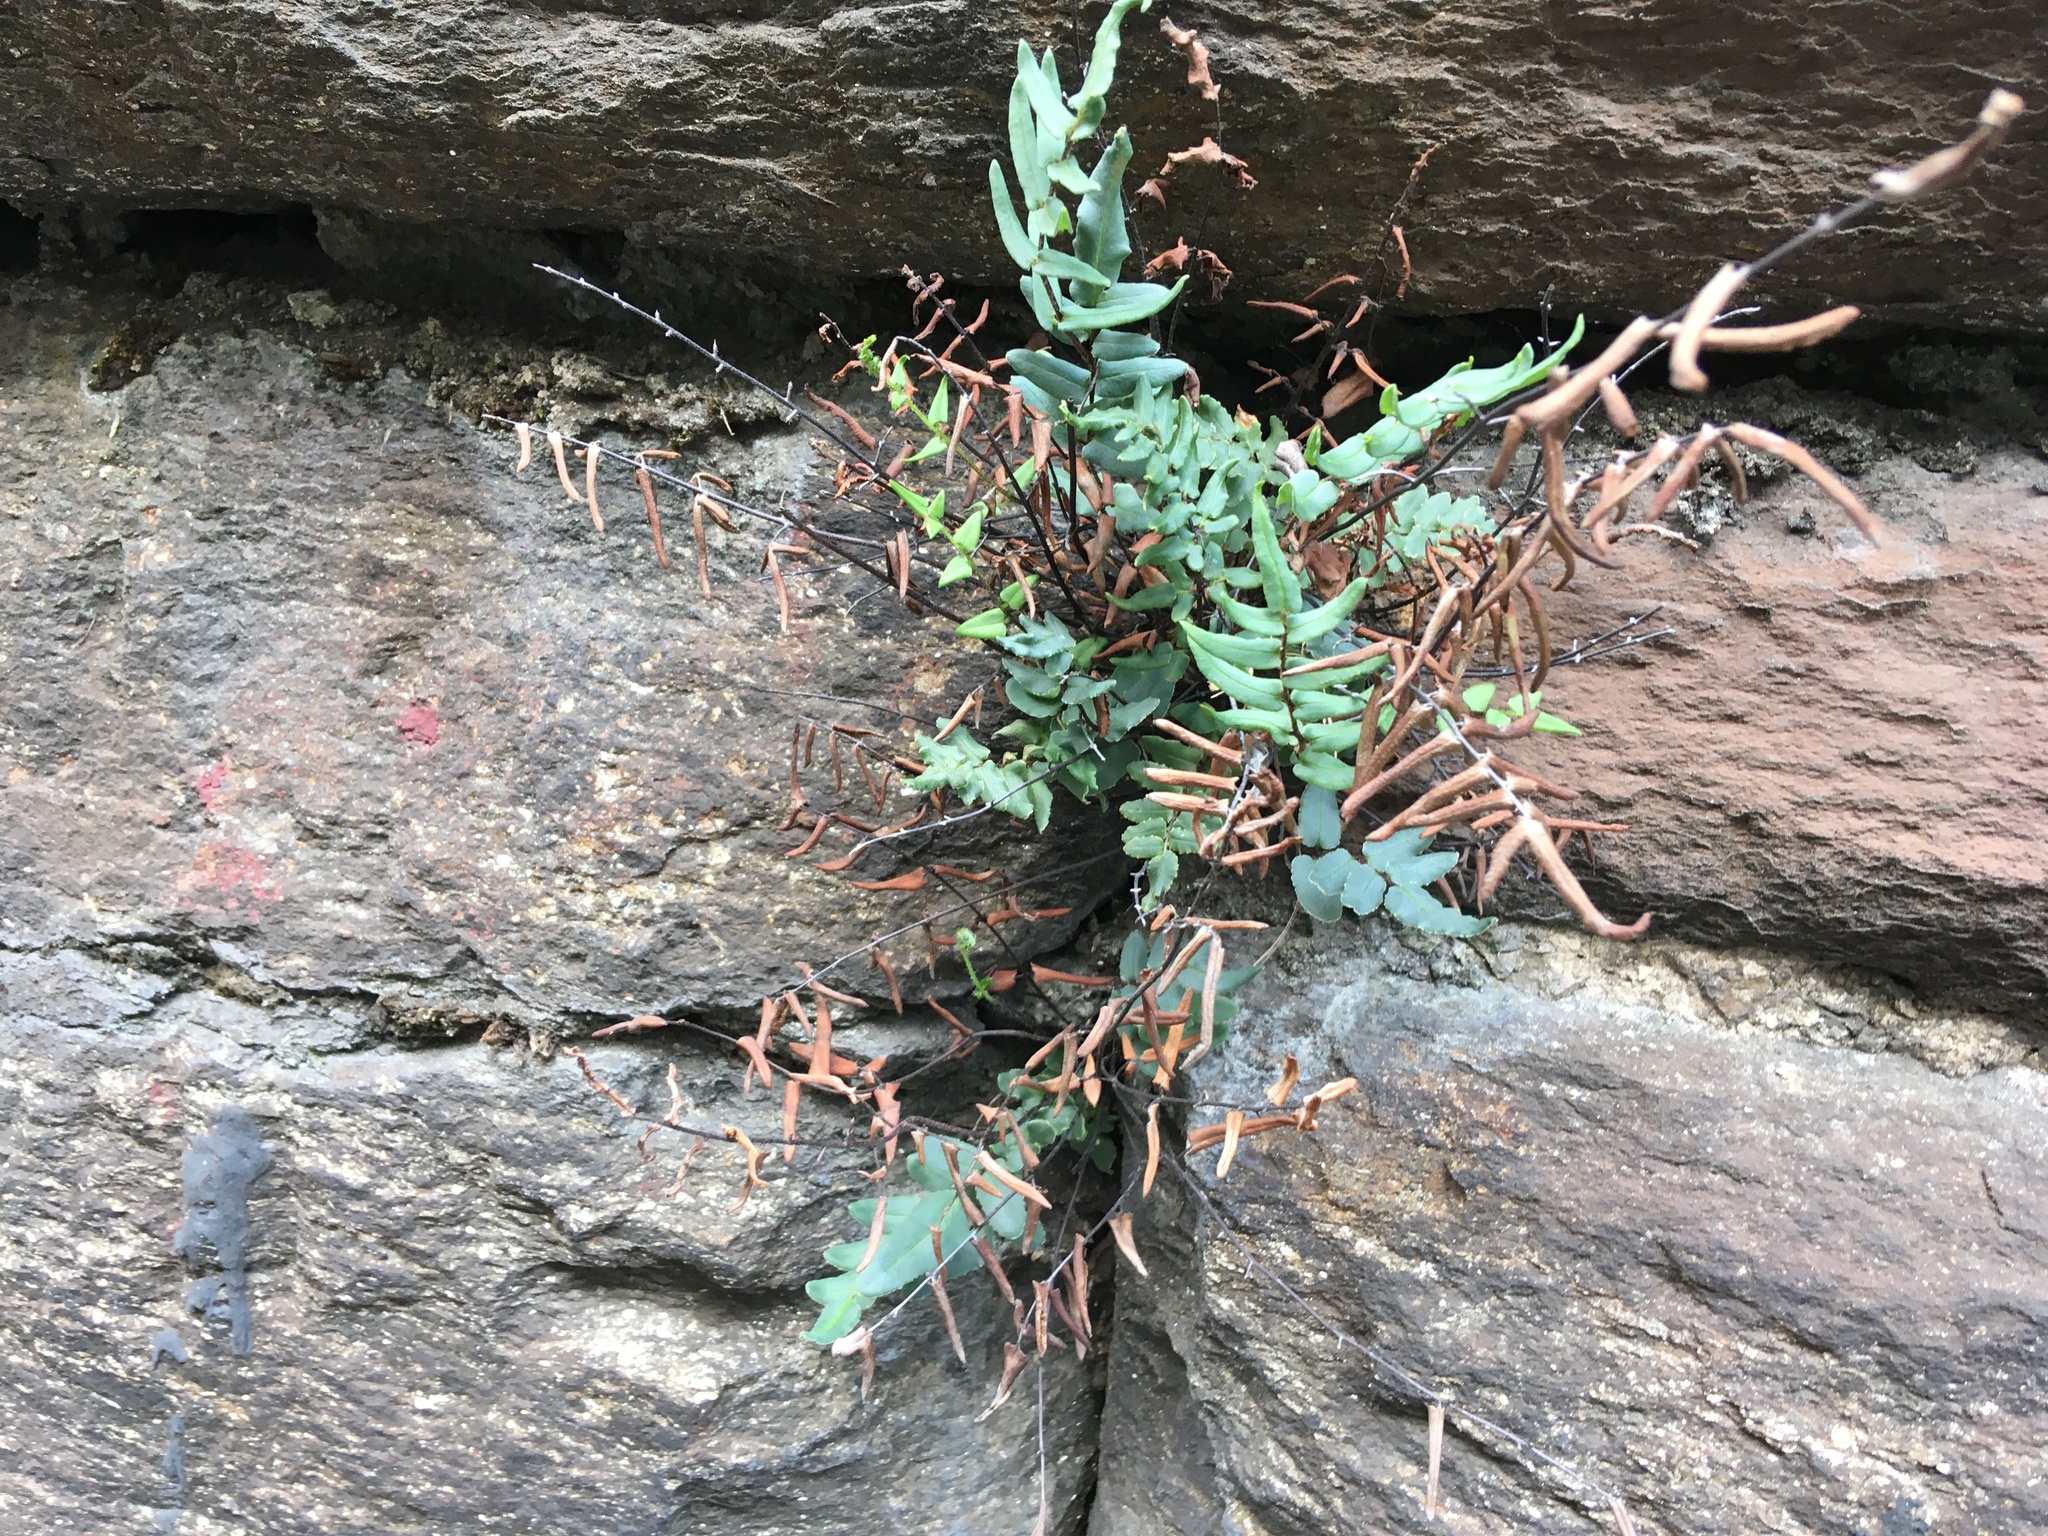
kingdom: Plantae
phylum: Tracheophyta
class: Polypodiopsida
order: Polypodiales
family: Pteridaceae
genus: Pellaea
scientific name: Pellaea atropurpurea
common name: Hairy cliffbrake
